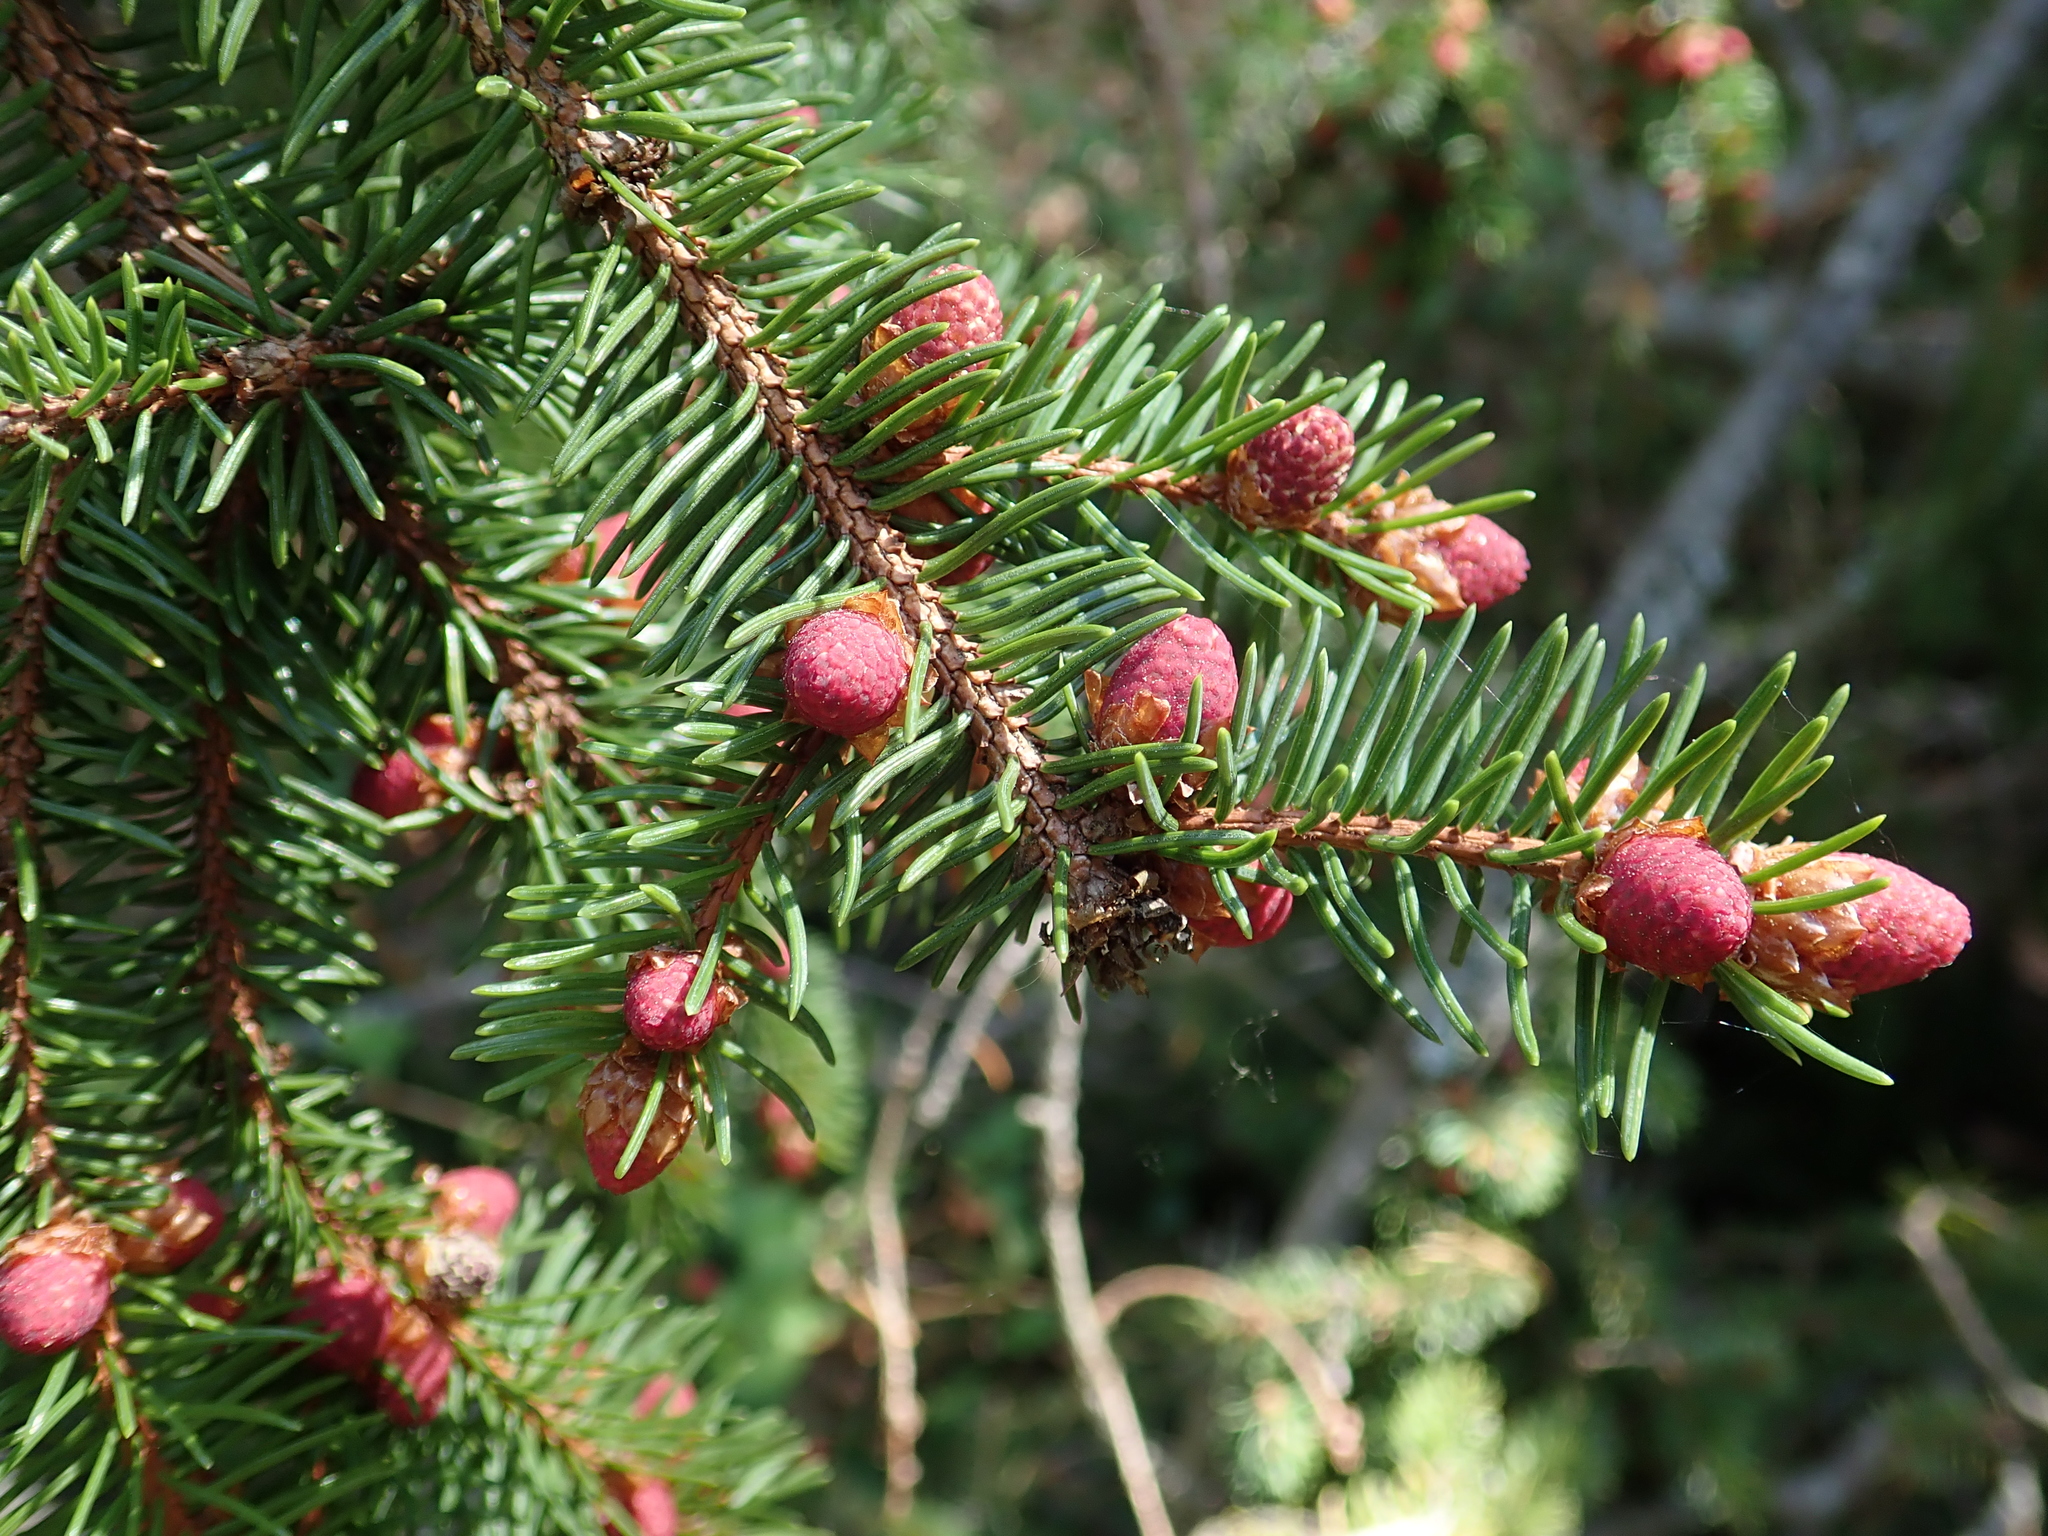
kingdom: Plantae
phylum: Tracheophyta
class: Pinopsida
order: Pinales
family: Pinaceae
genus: Picea
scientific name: Picea abies
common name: Norway spruce
